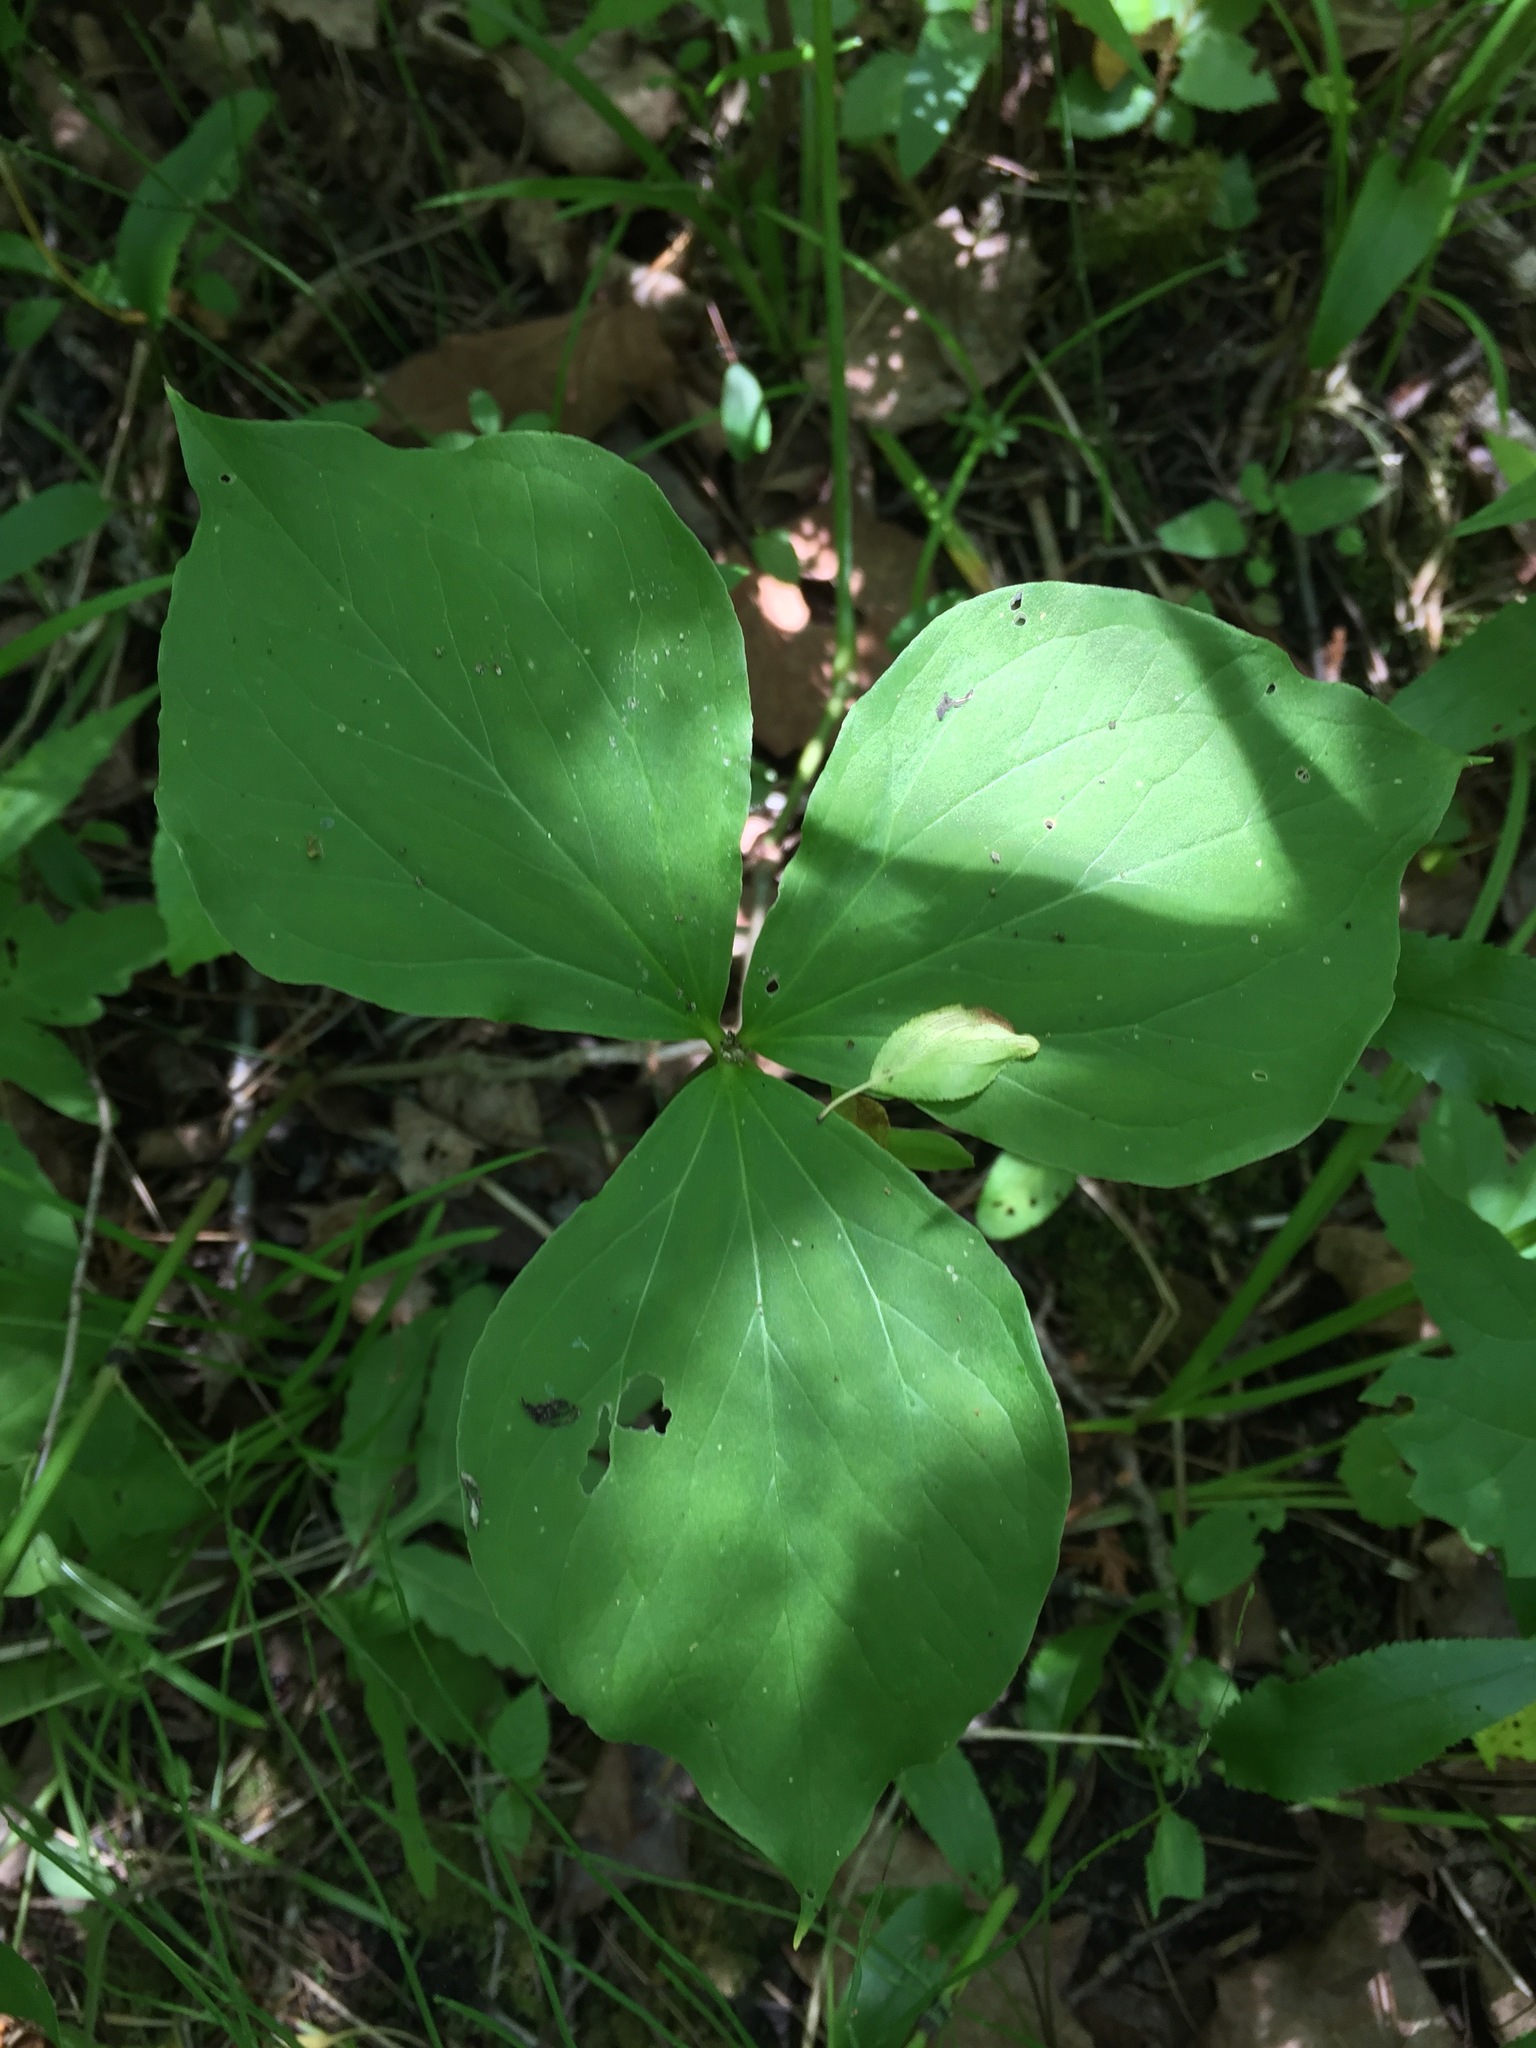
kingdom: Plantae
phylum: Tracheophyta
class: Liliopsida
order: Liliales
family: Melanthiaceae
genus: Trillium
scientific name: Trillium cernuum
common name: Nodding trillium
